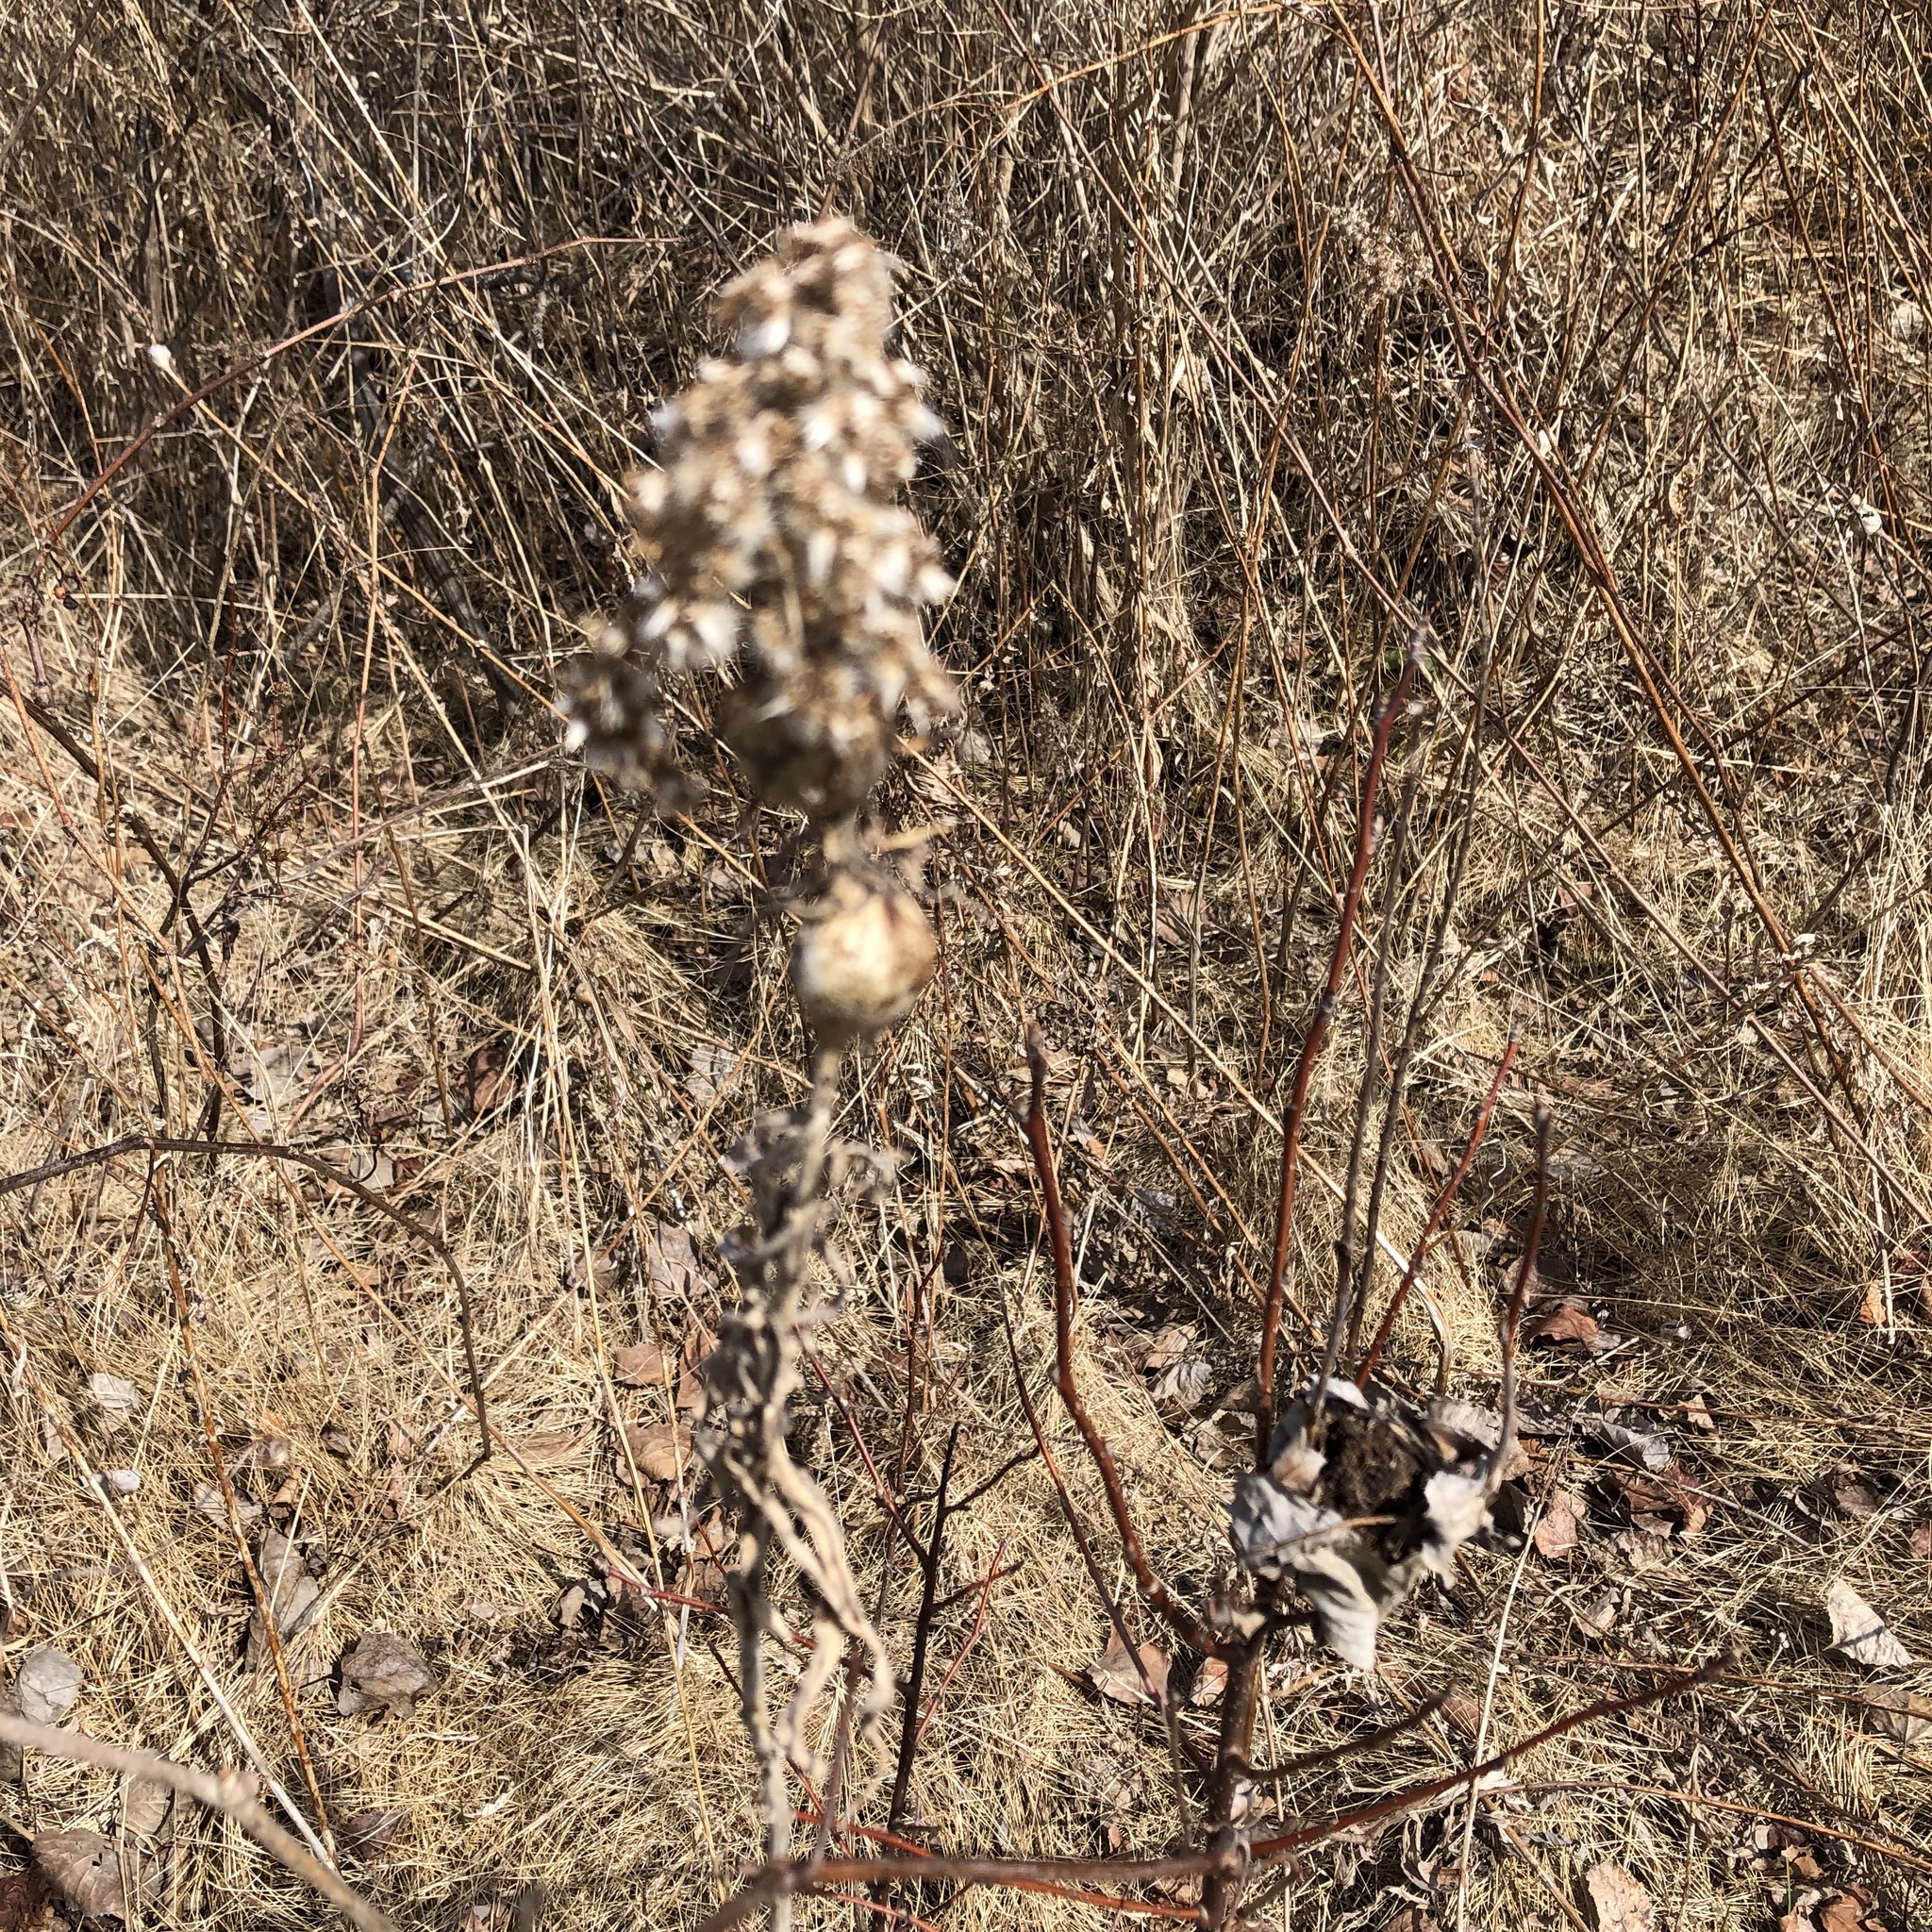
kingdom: Animalia
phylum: Arthropoda
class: Insecta
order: Diptera
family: Tephritidae
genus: Eurosta
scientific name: Eurosta solidaginis
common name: Goldenrod gall fly
